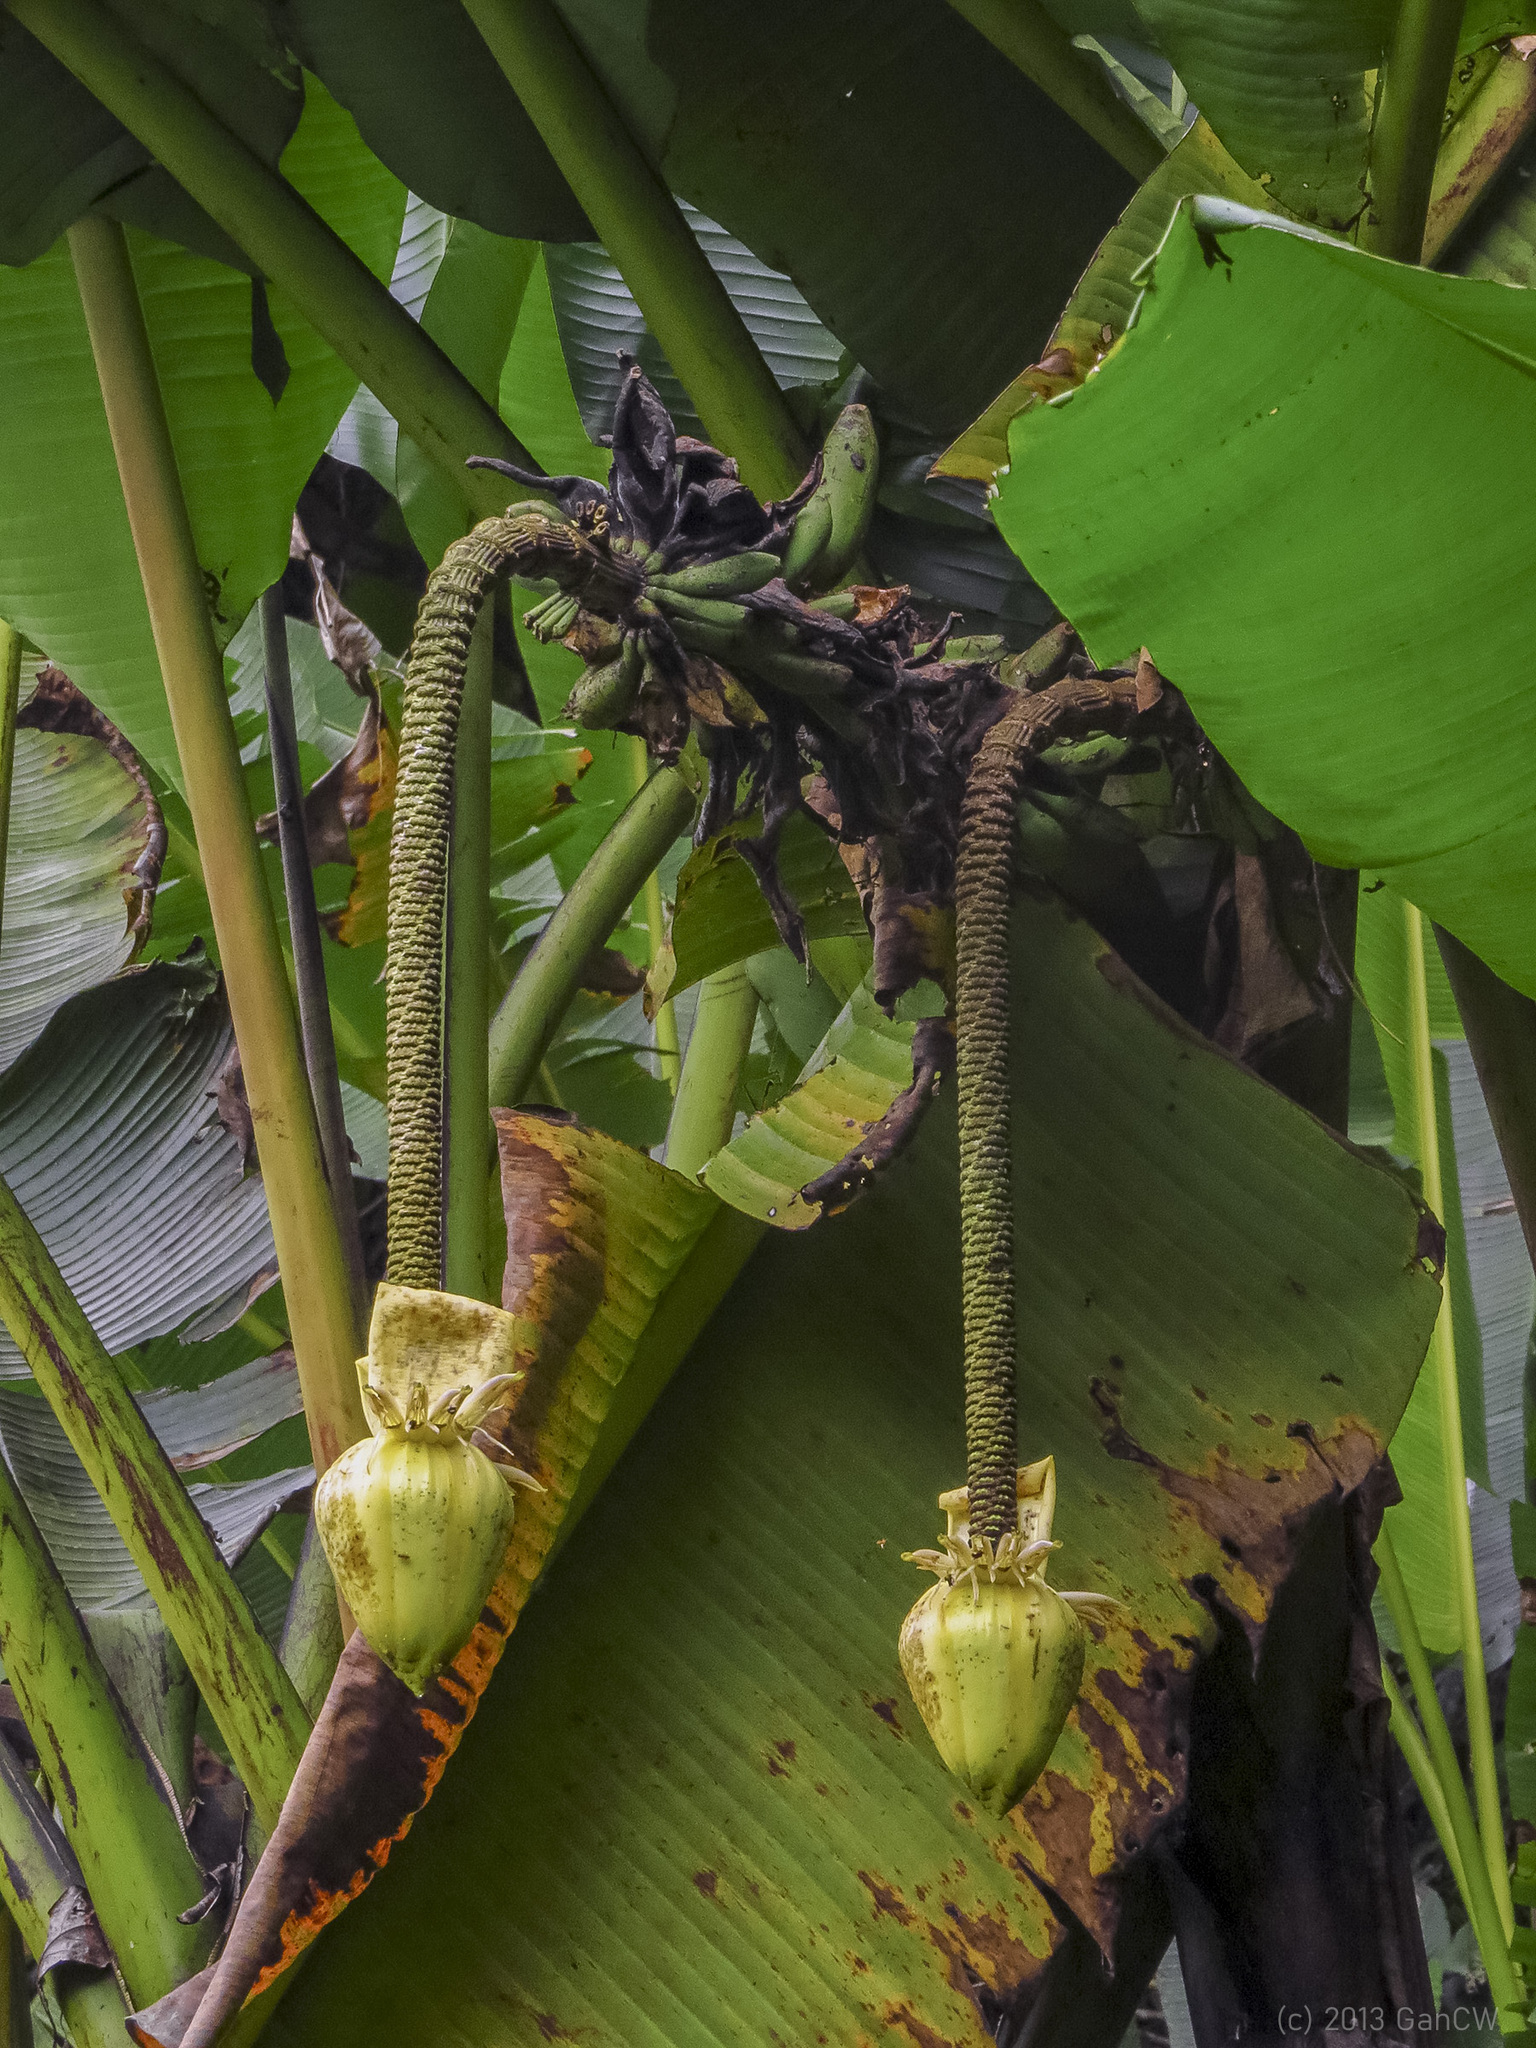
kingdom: Plantae
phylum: Tracheophyta
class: Liliopsida
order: Zingiberales
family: Musaceae
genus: Musa
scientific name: Musa borneensis
